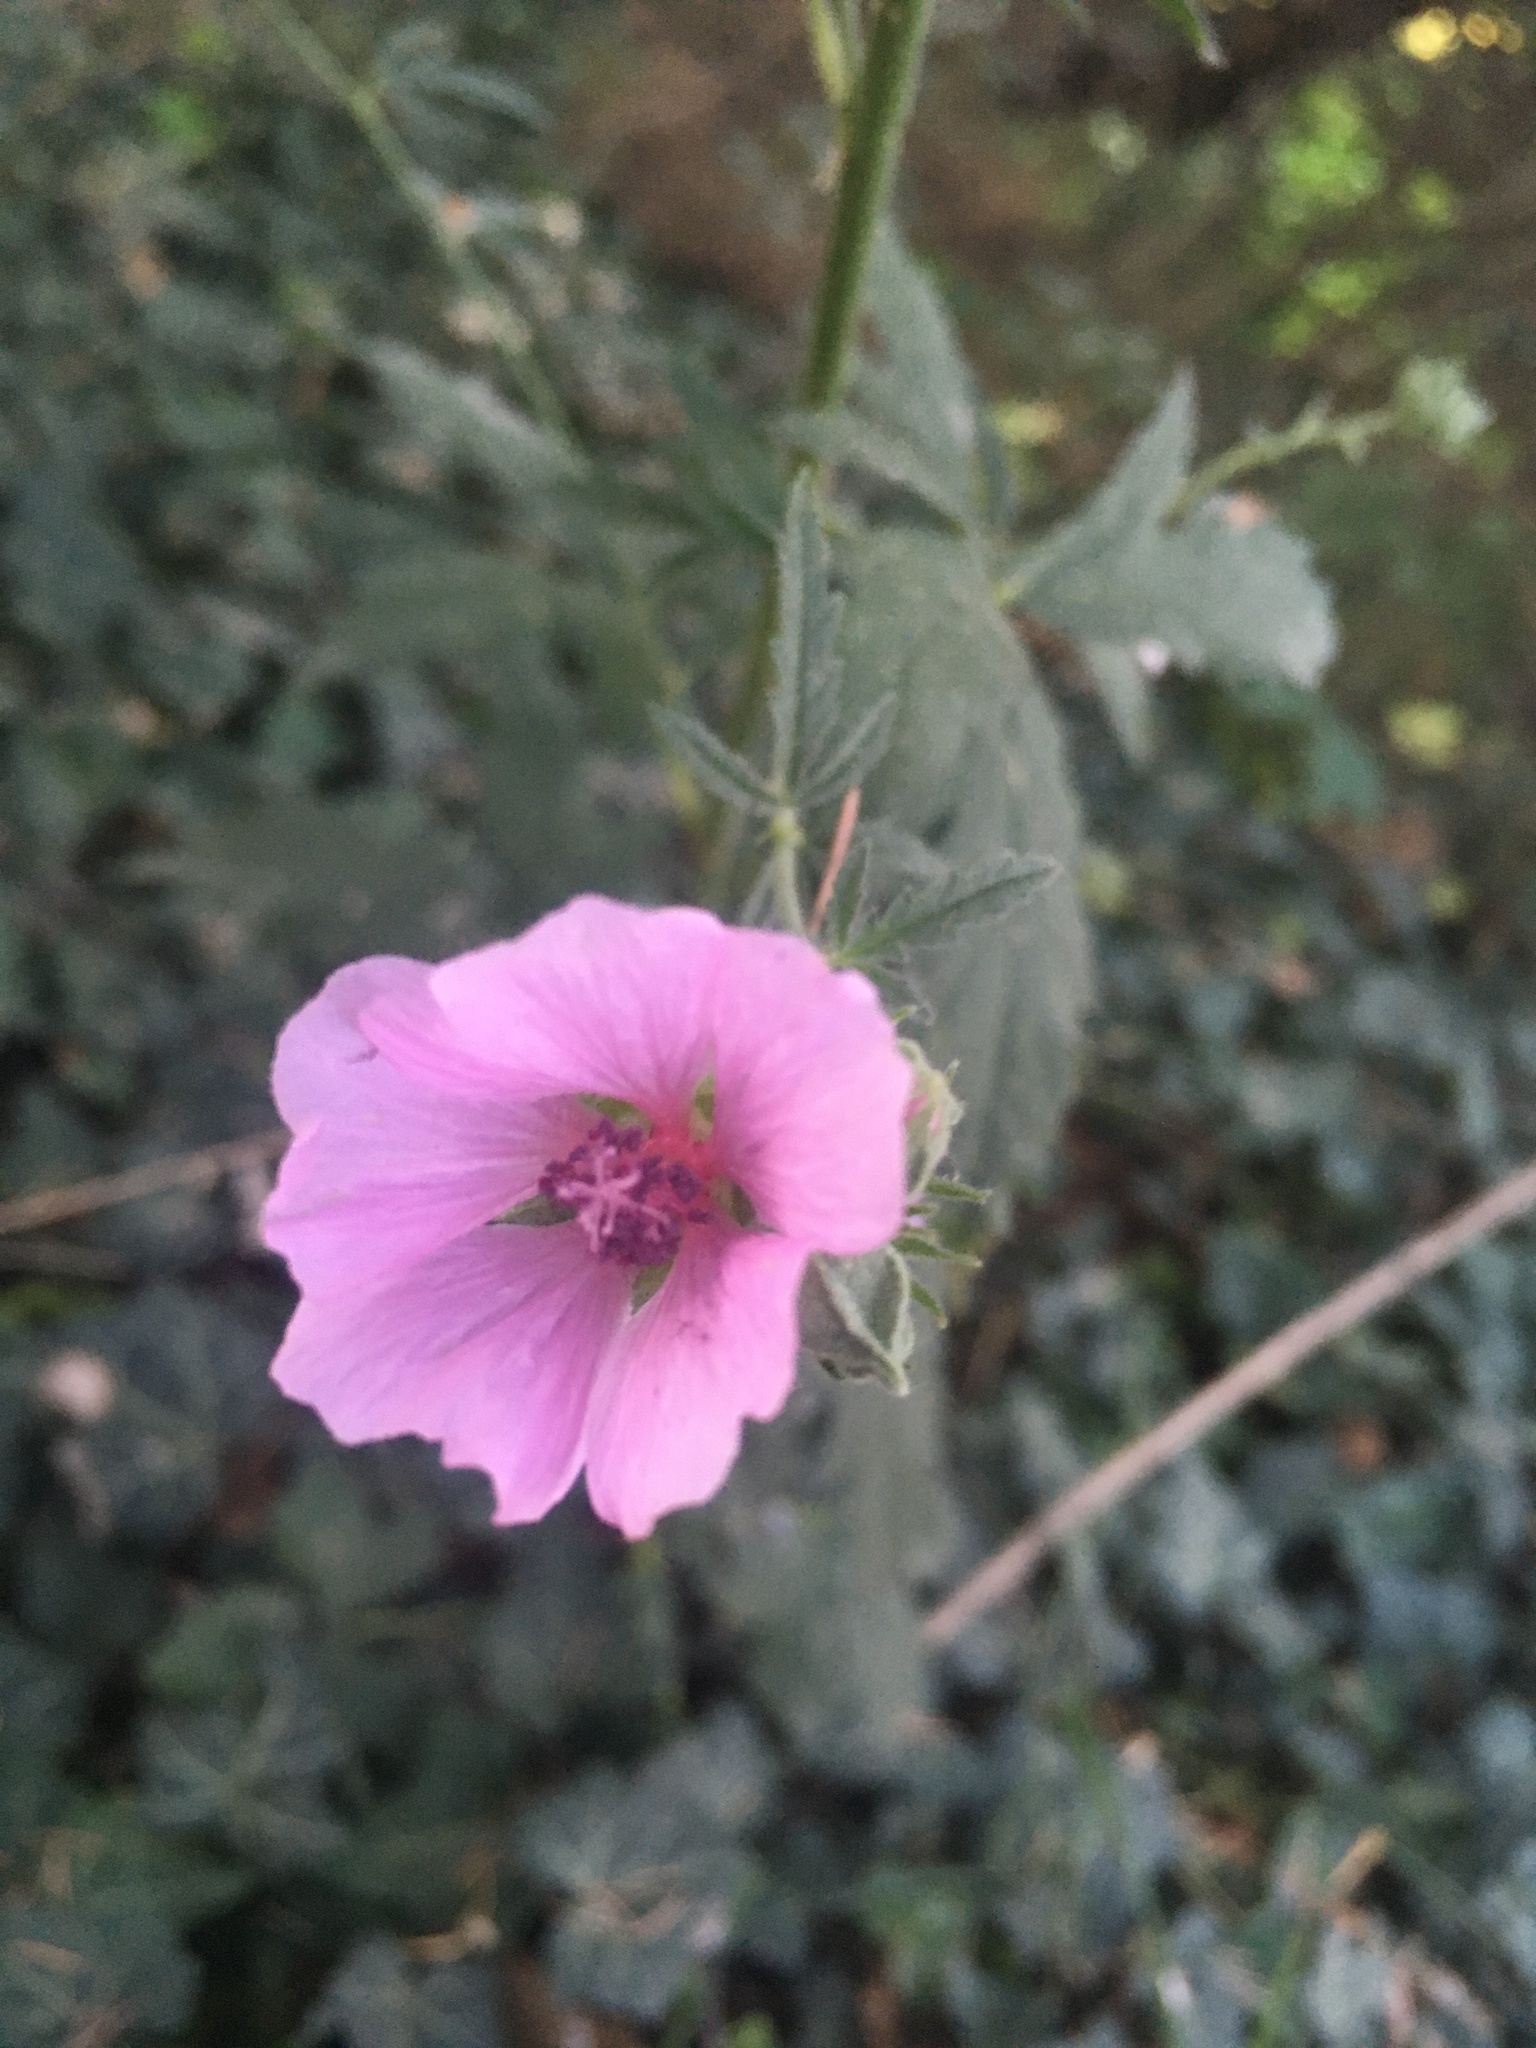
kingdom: Plantae
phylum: Tracheophyta
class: Magnoliopsida
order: Malvales
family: Malvaceae
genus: Althaea
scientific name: Althaea cannabina
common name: Palm-leaf marshmallow
